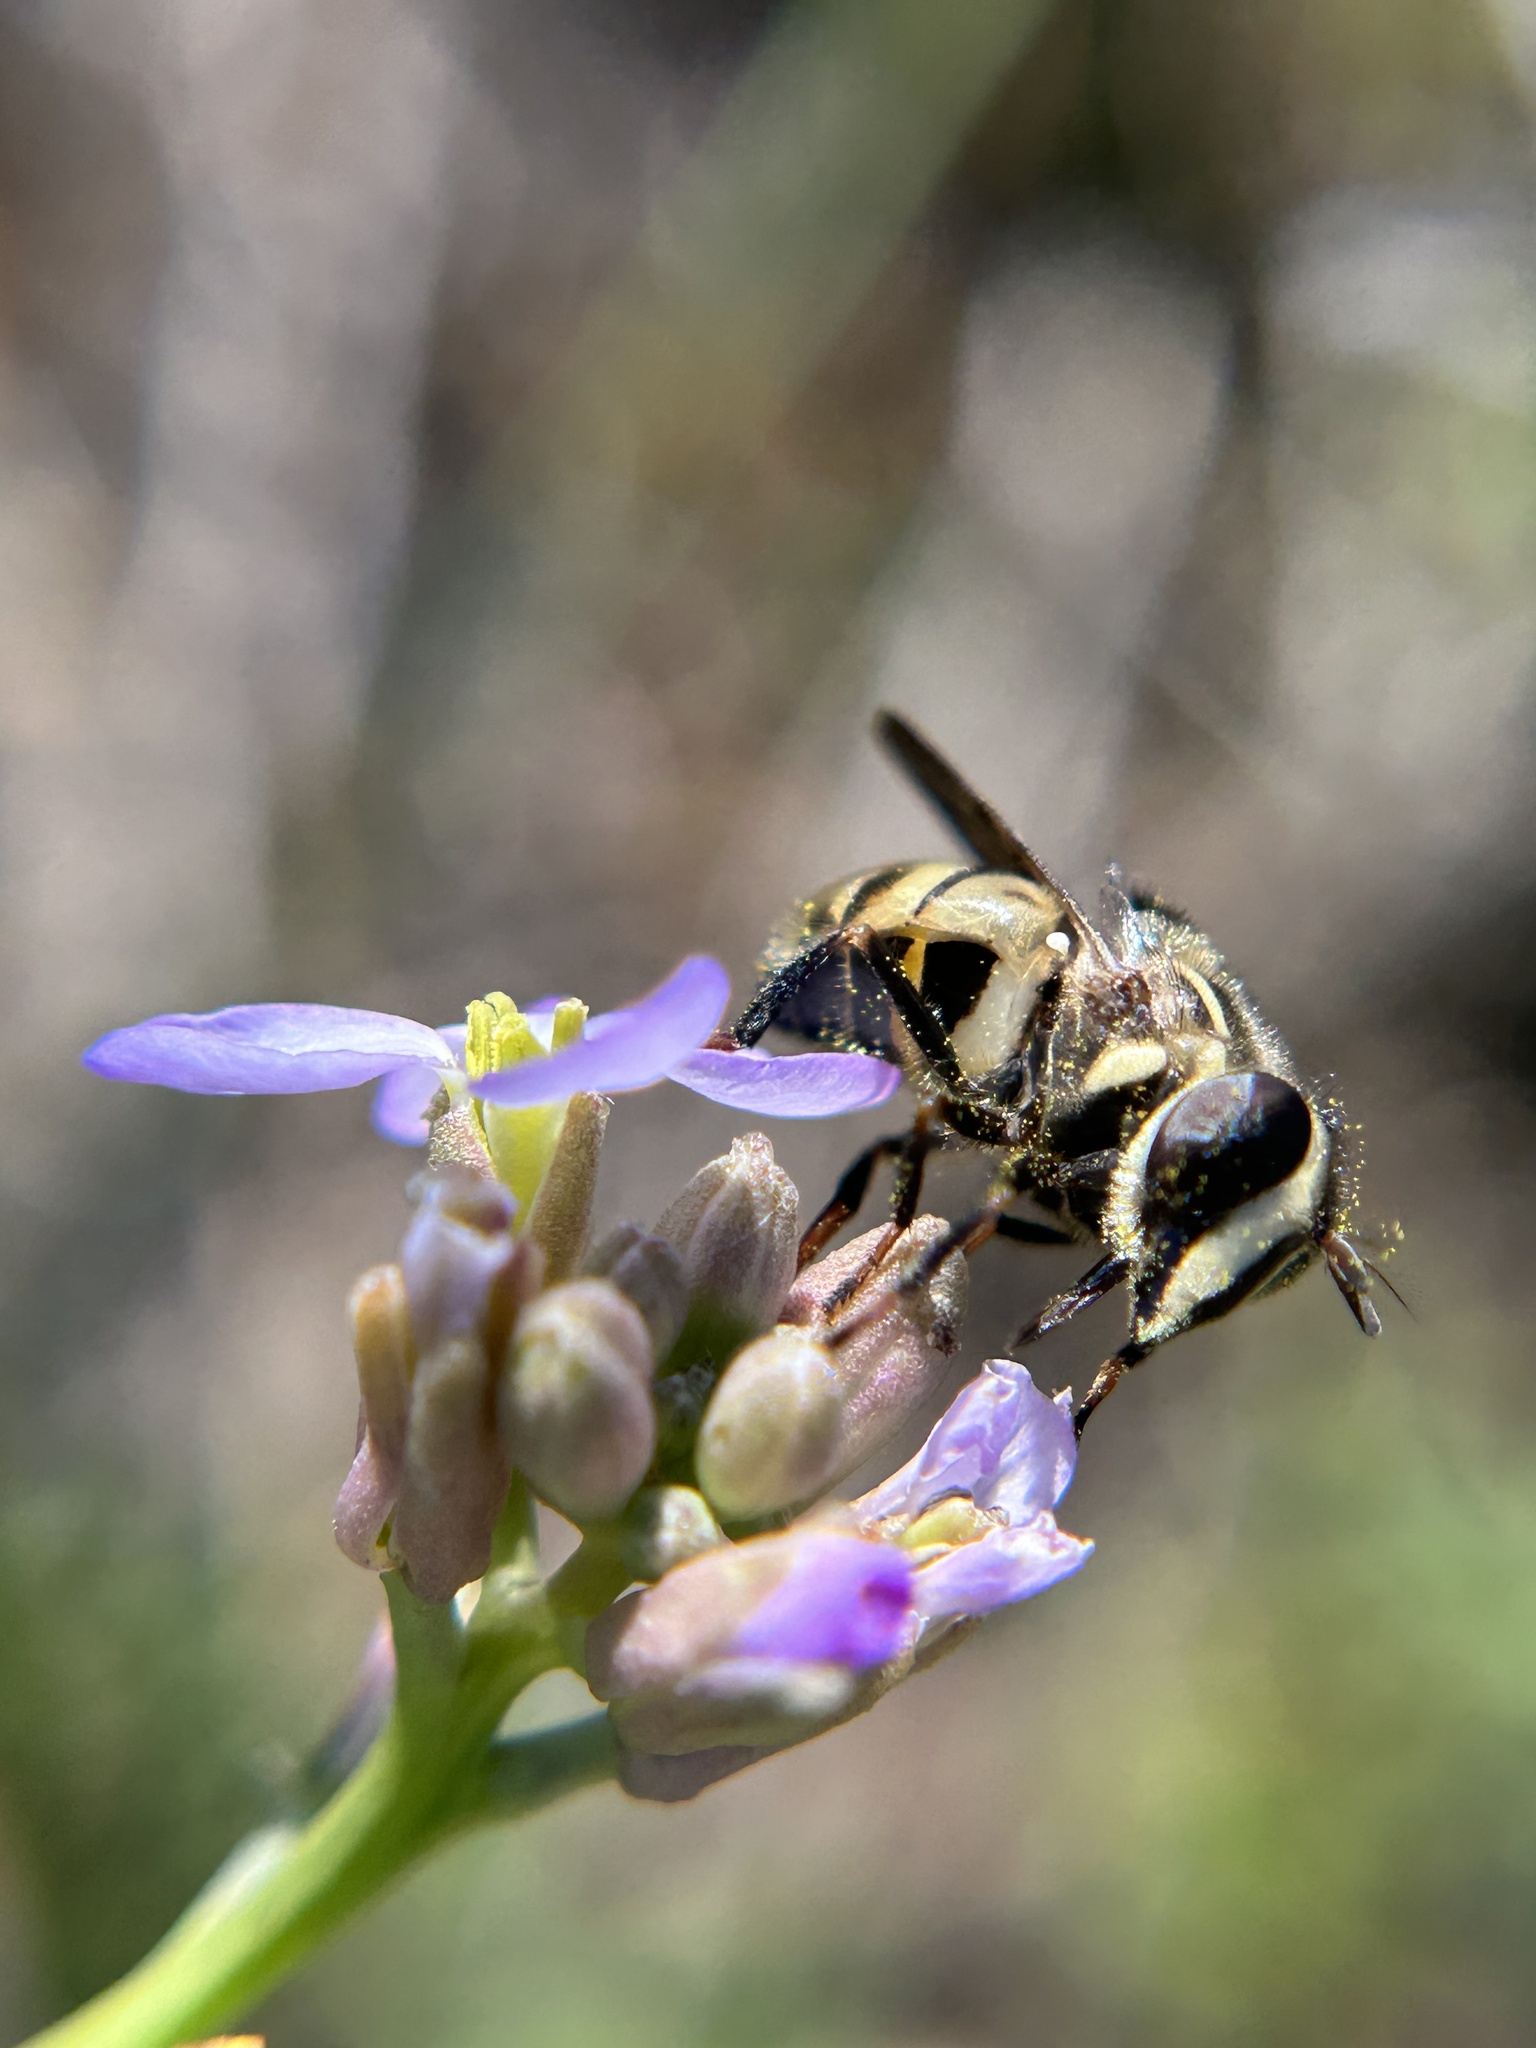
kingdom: Animalia
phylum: Arthropoda
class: Insecta
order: Diptera
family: Syrphidae
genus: Copestylum
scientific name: Copestylum fraudulentum
